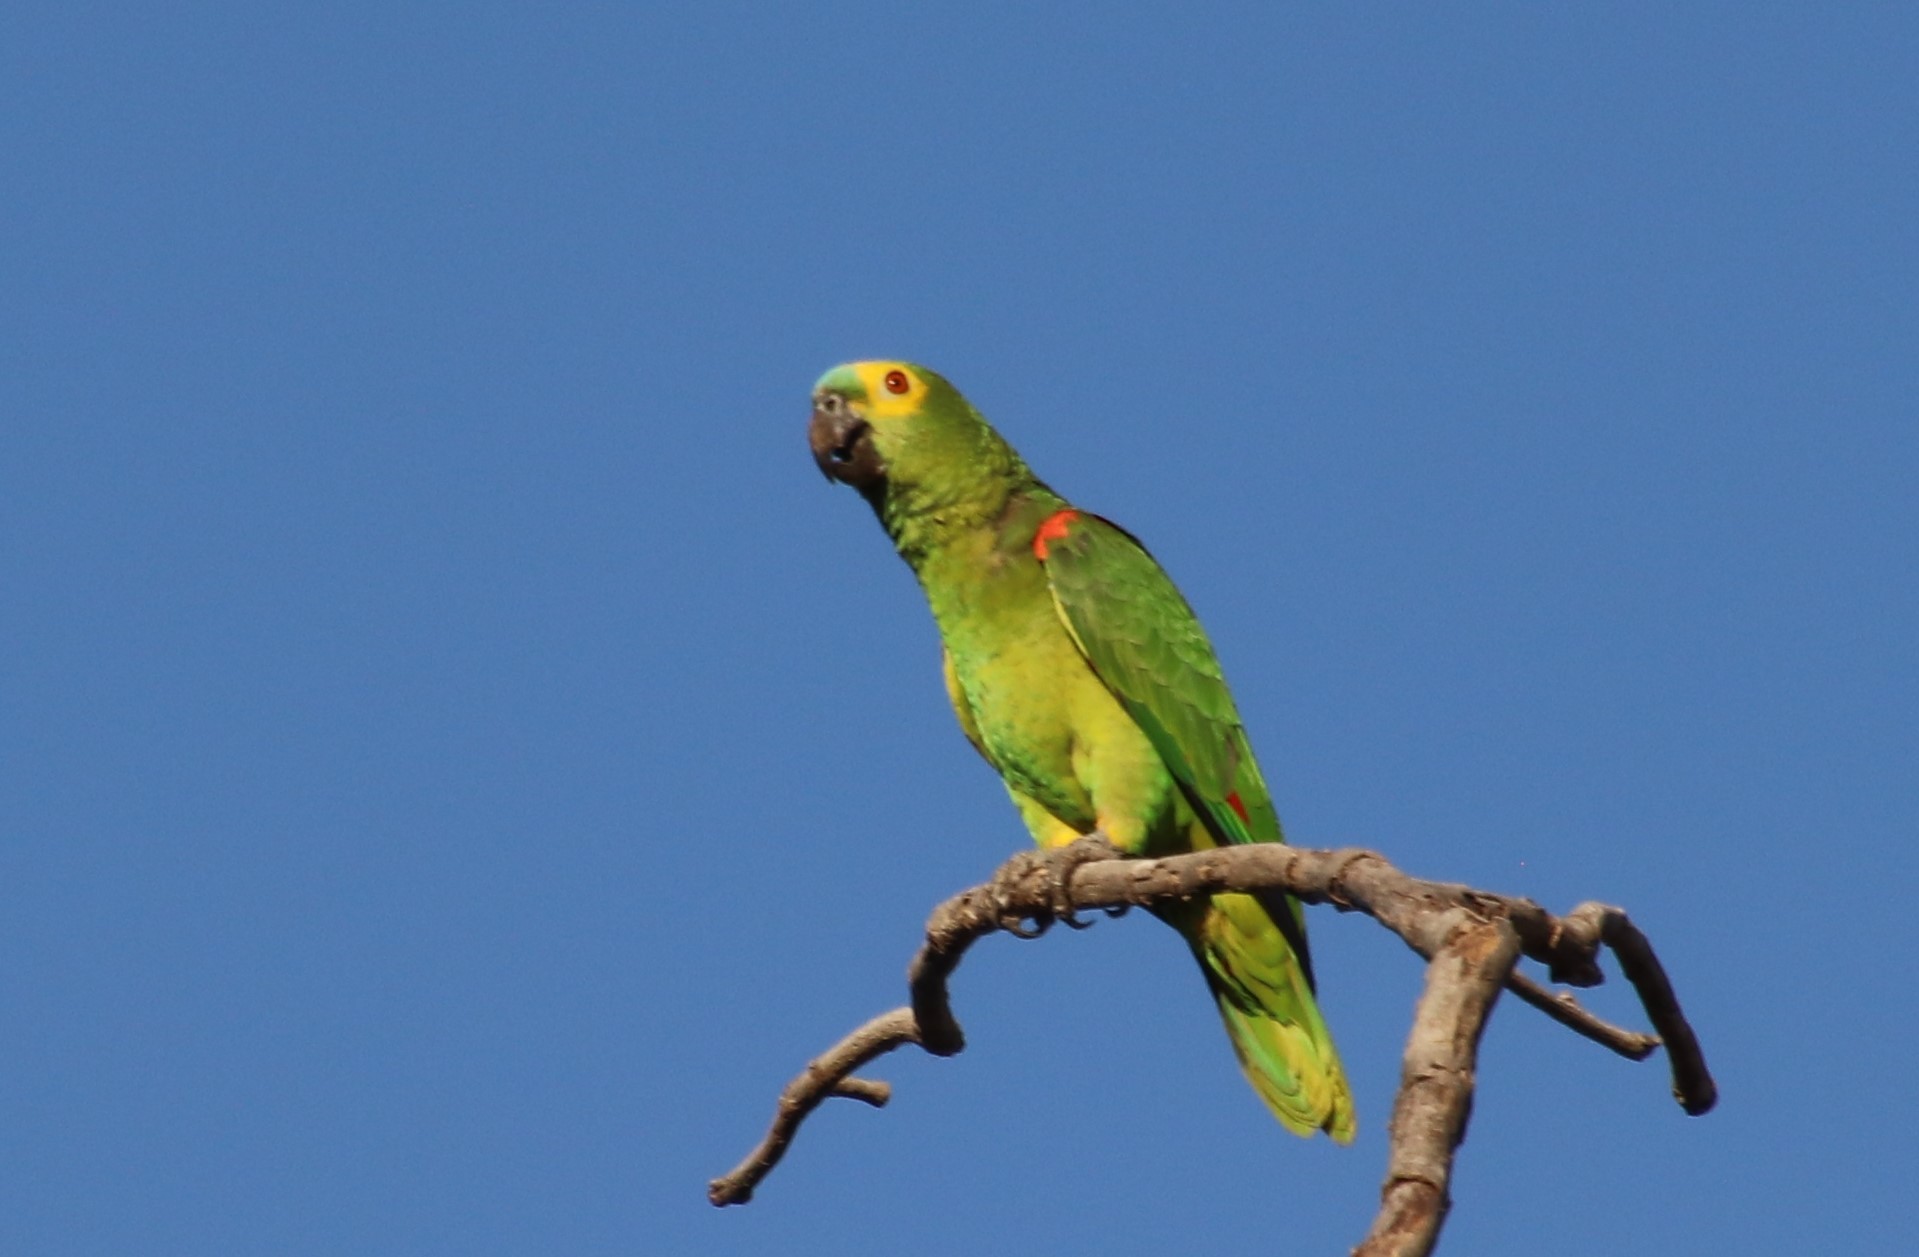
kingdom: Animalia
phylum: Chordata
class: Aves
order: Psittaciformes
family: Psittacidae
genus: Amazona
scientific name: Amazona aestiva
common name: Turquoise-fronted amazon
